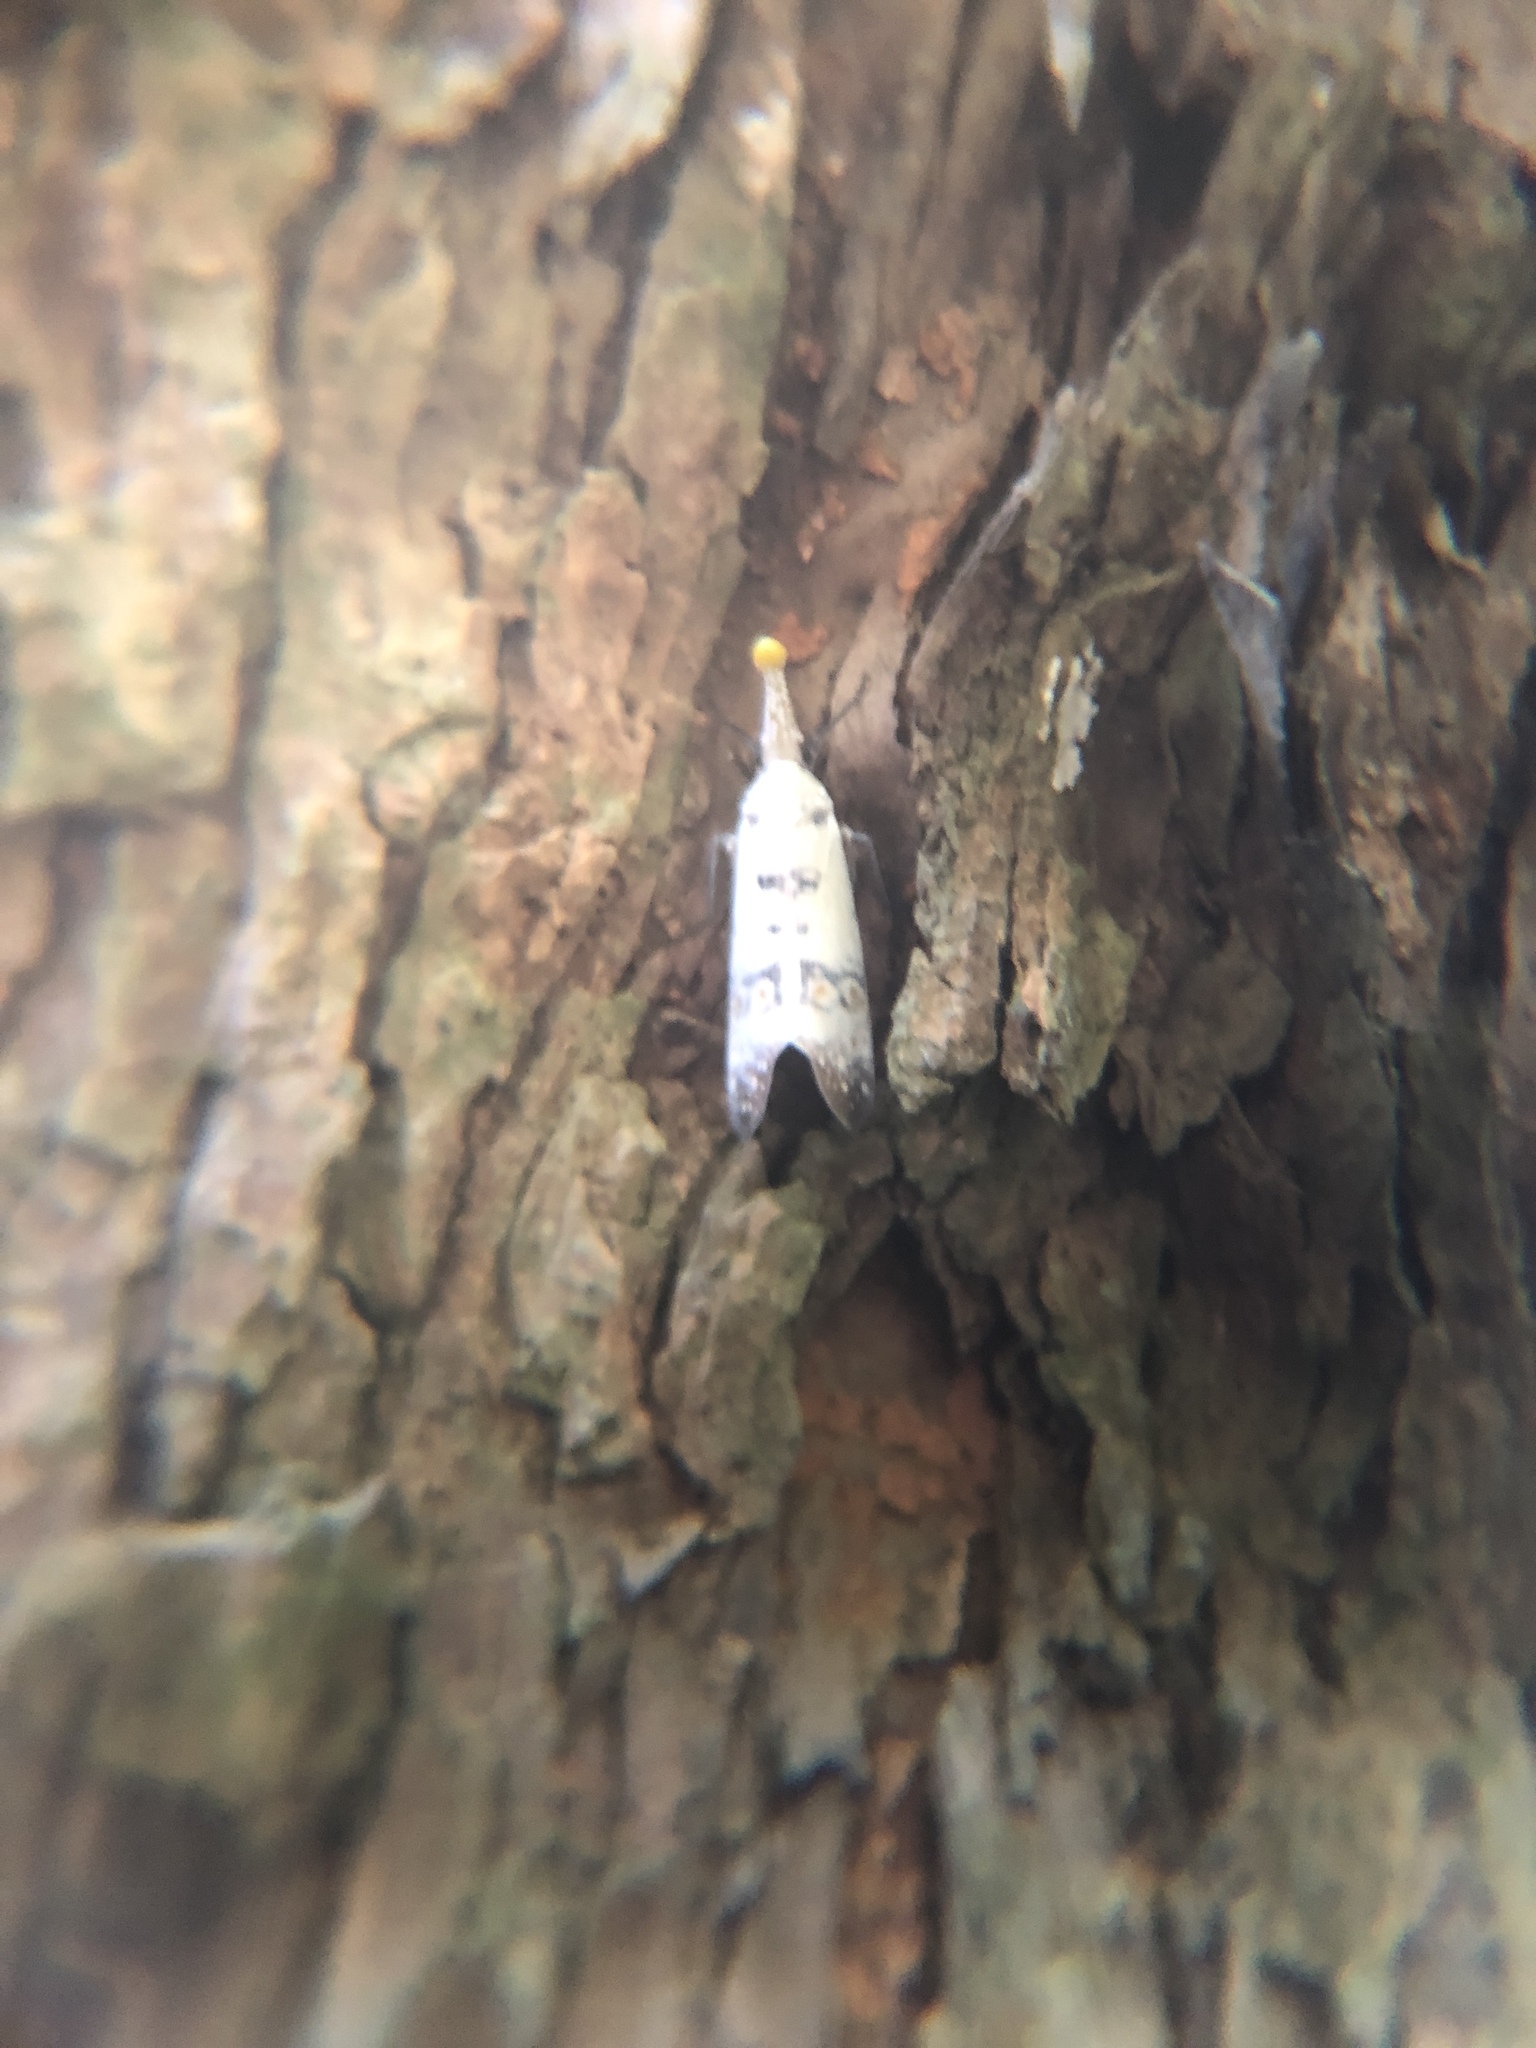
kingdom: Animalia
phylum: Arthropoda
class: Insecta
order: Hemiptera
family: Fulgoridae
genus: Pyrops
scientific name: Pyrops watanabei
